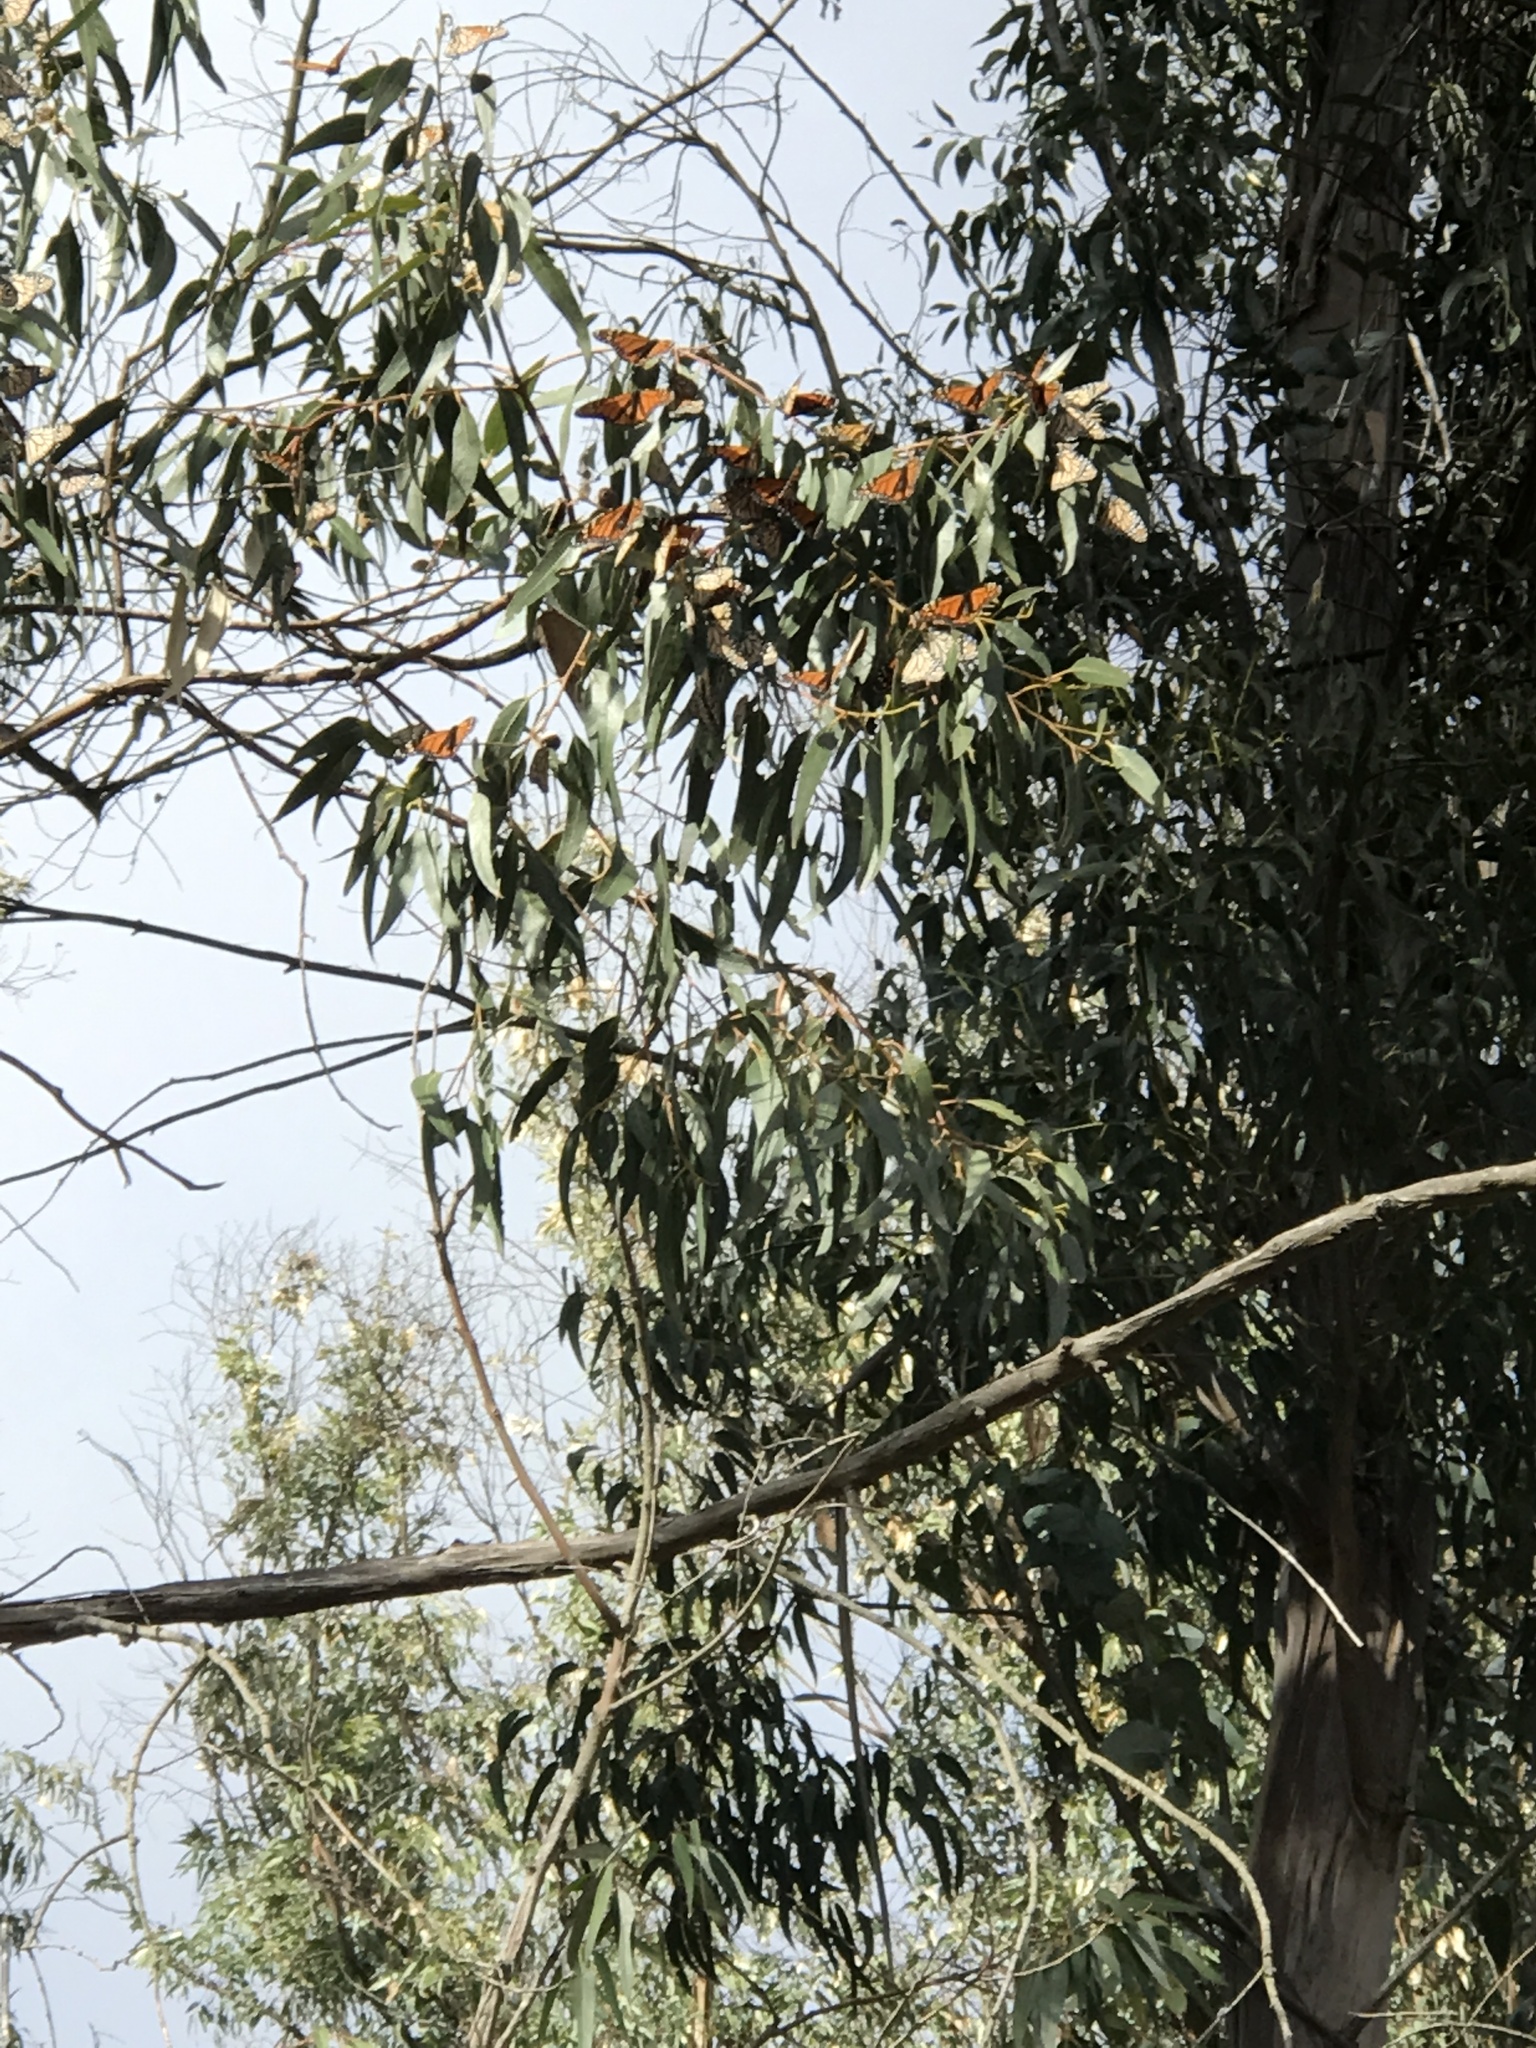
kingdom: Animalia
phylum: Arthropoda
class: Insecta
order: Lepidoptera
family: Nymphalidae
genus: Danaus
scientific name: Danaus plexippus
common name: Monarch
